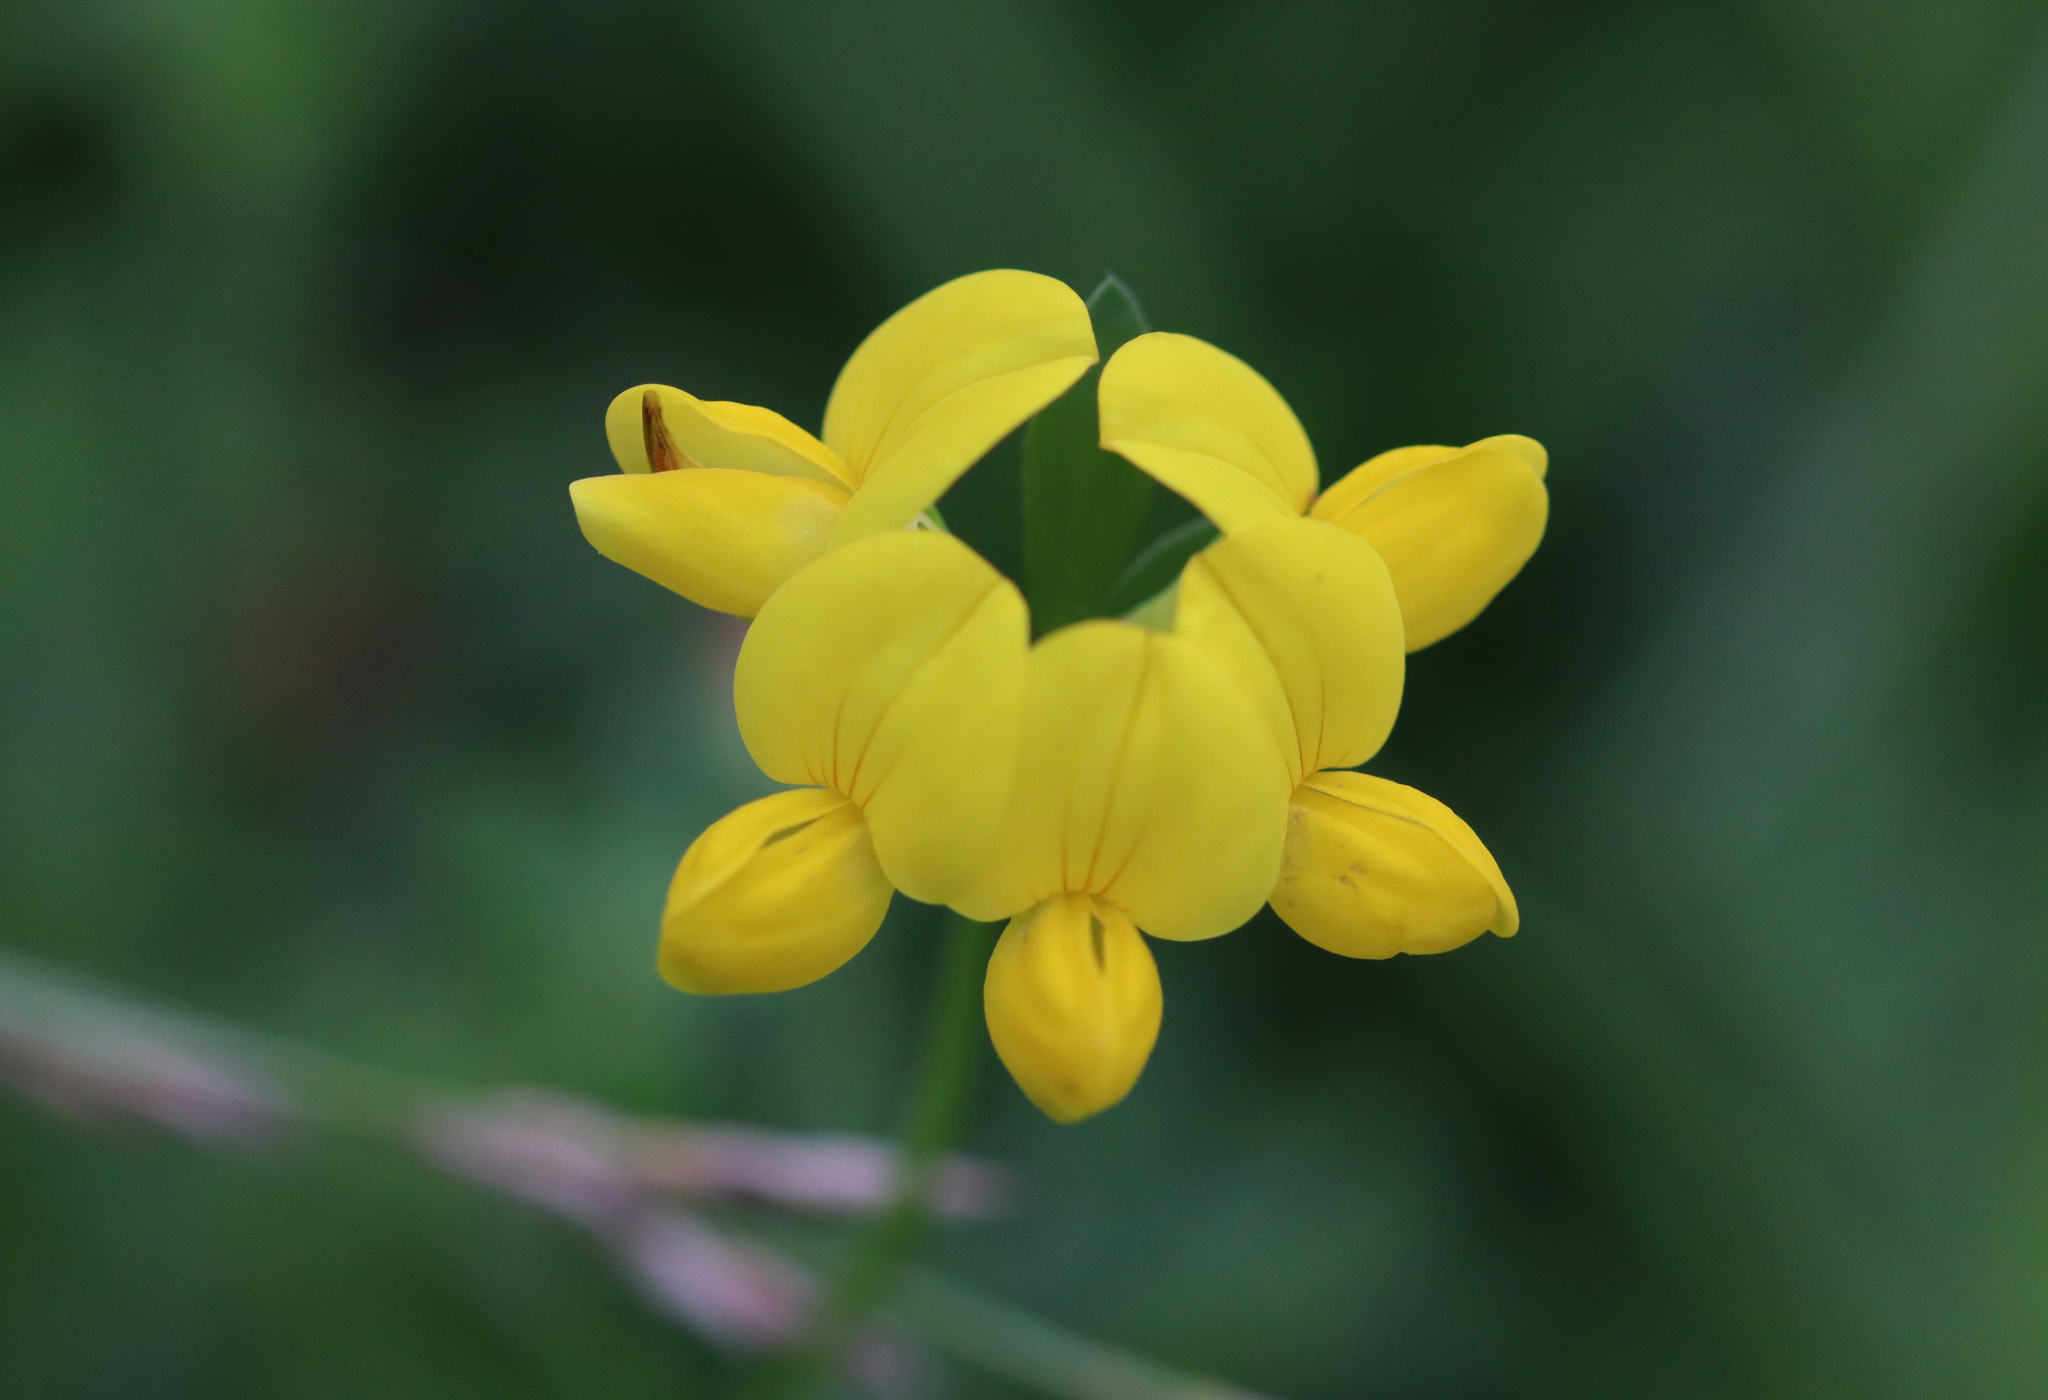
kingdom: Plantae
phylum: Tracheophyta
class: Magnoliopsida
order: Fabales
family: Fabaceae
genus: Lotus
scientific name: Lotus corniculatus
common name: Common bird's-foot-trefoil
